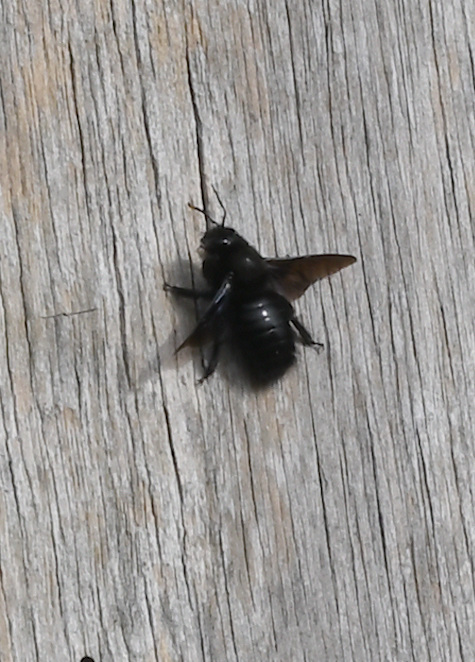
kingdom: Animalia
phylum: Arthropoda
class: Insecta
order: Hymenoptera
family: Apidae
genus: Xylocopa
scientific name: Xylocopa violacea
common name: Violet carpenter bee
